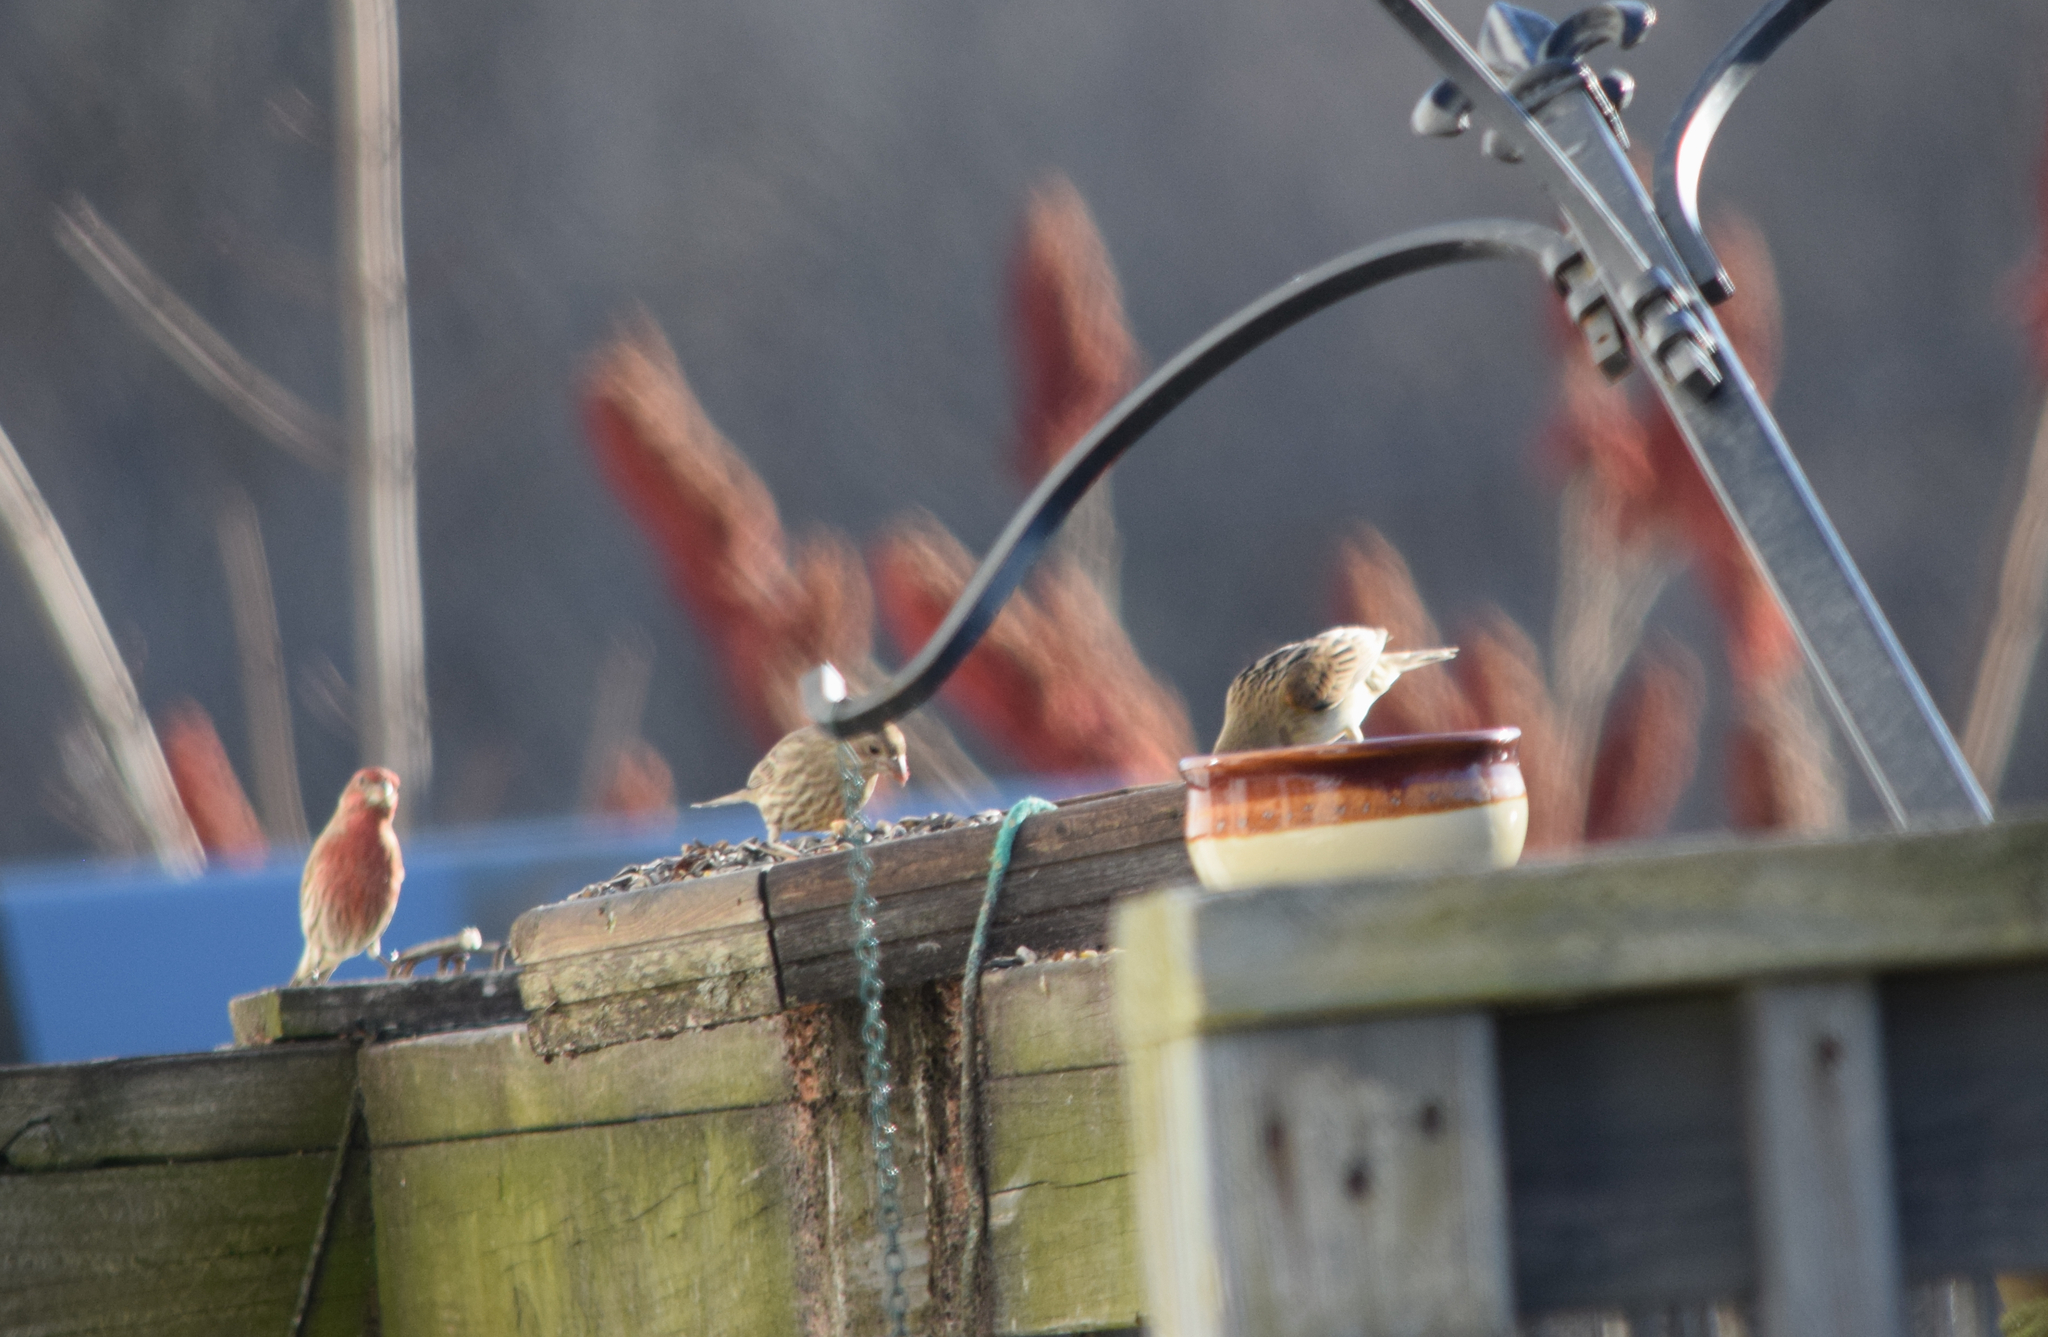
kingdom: Animalia
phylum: Chordata
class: Aves
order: Passeriformes
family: Fringillidae
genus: Haemorhous
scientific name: Haemorhous mexicanus
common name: House finch
